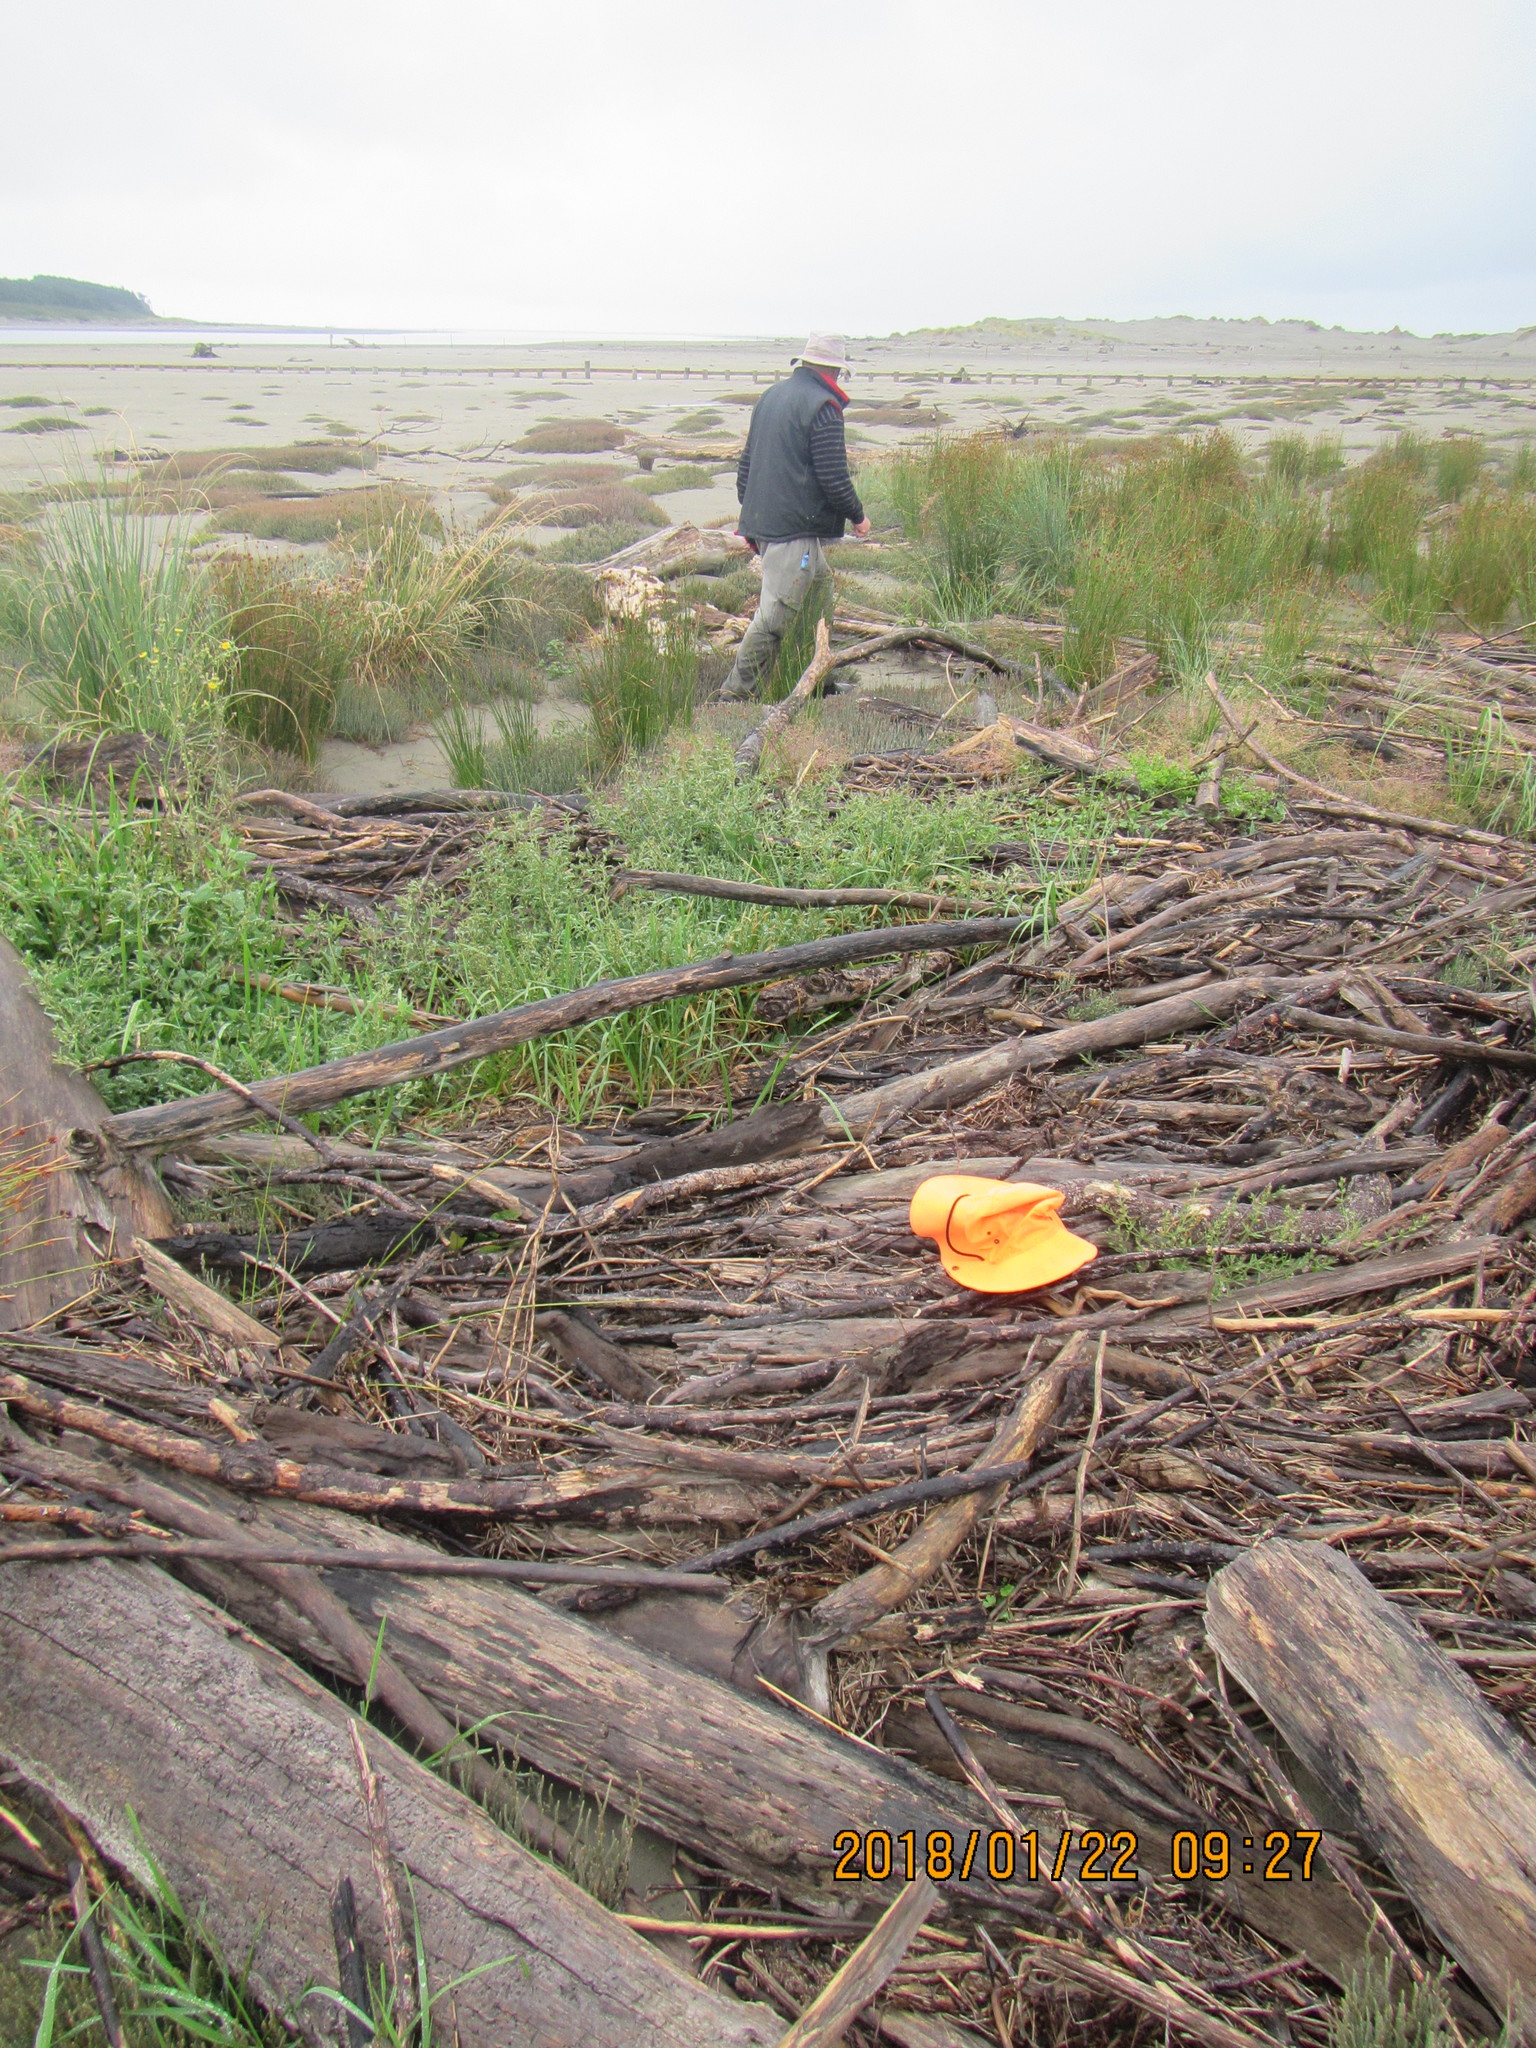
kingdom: Plantae
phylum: Tracheophyta
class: Magnoliopsida
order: Caryophyllales
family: Caryophyllaceae
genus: Silene
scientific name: Silene gallica
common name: Small-flowered catchfly
